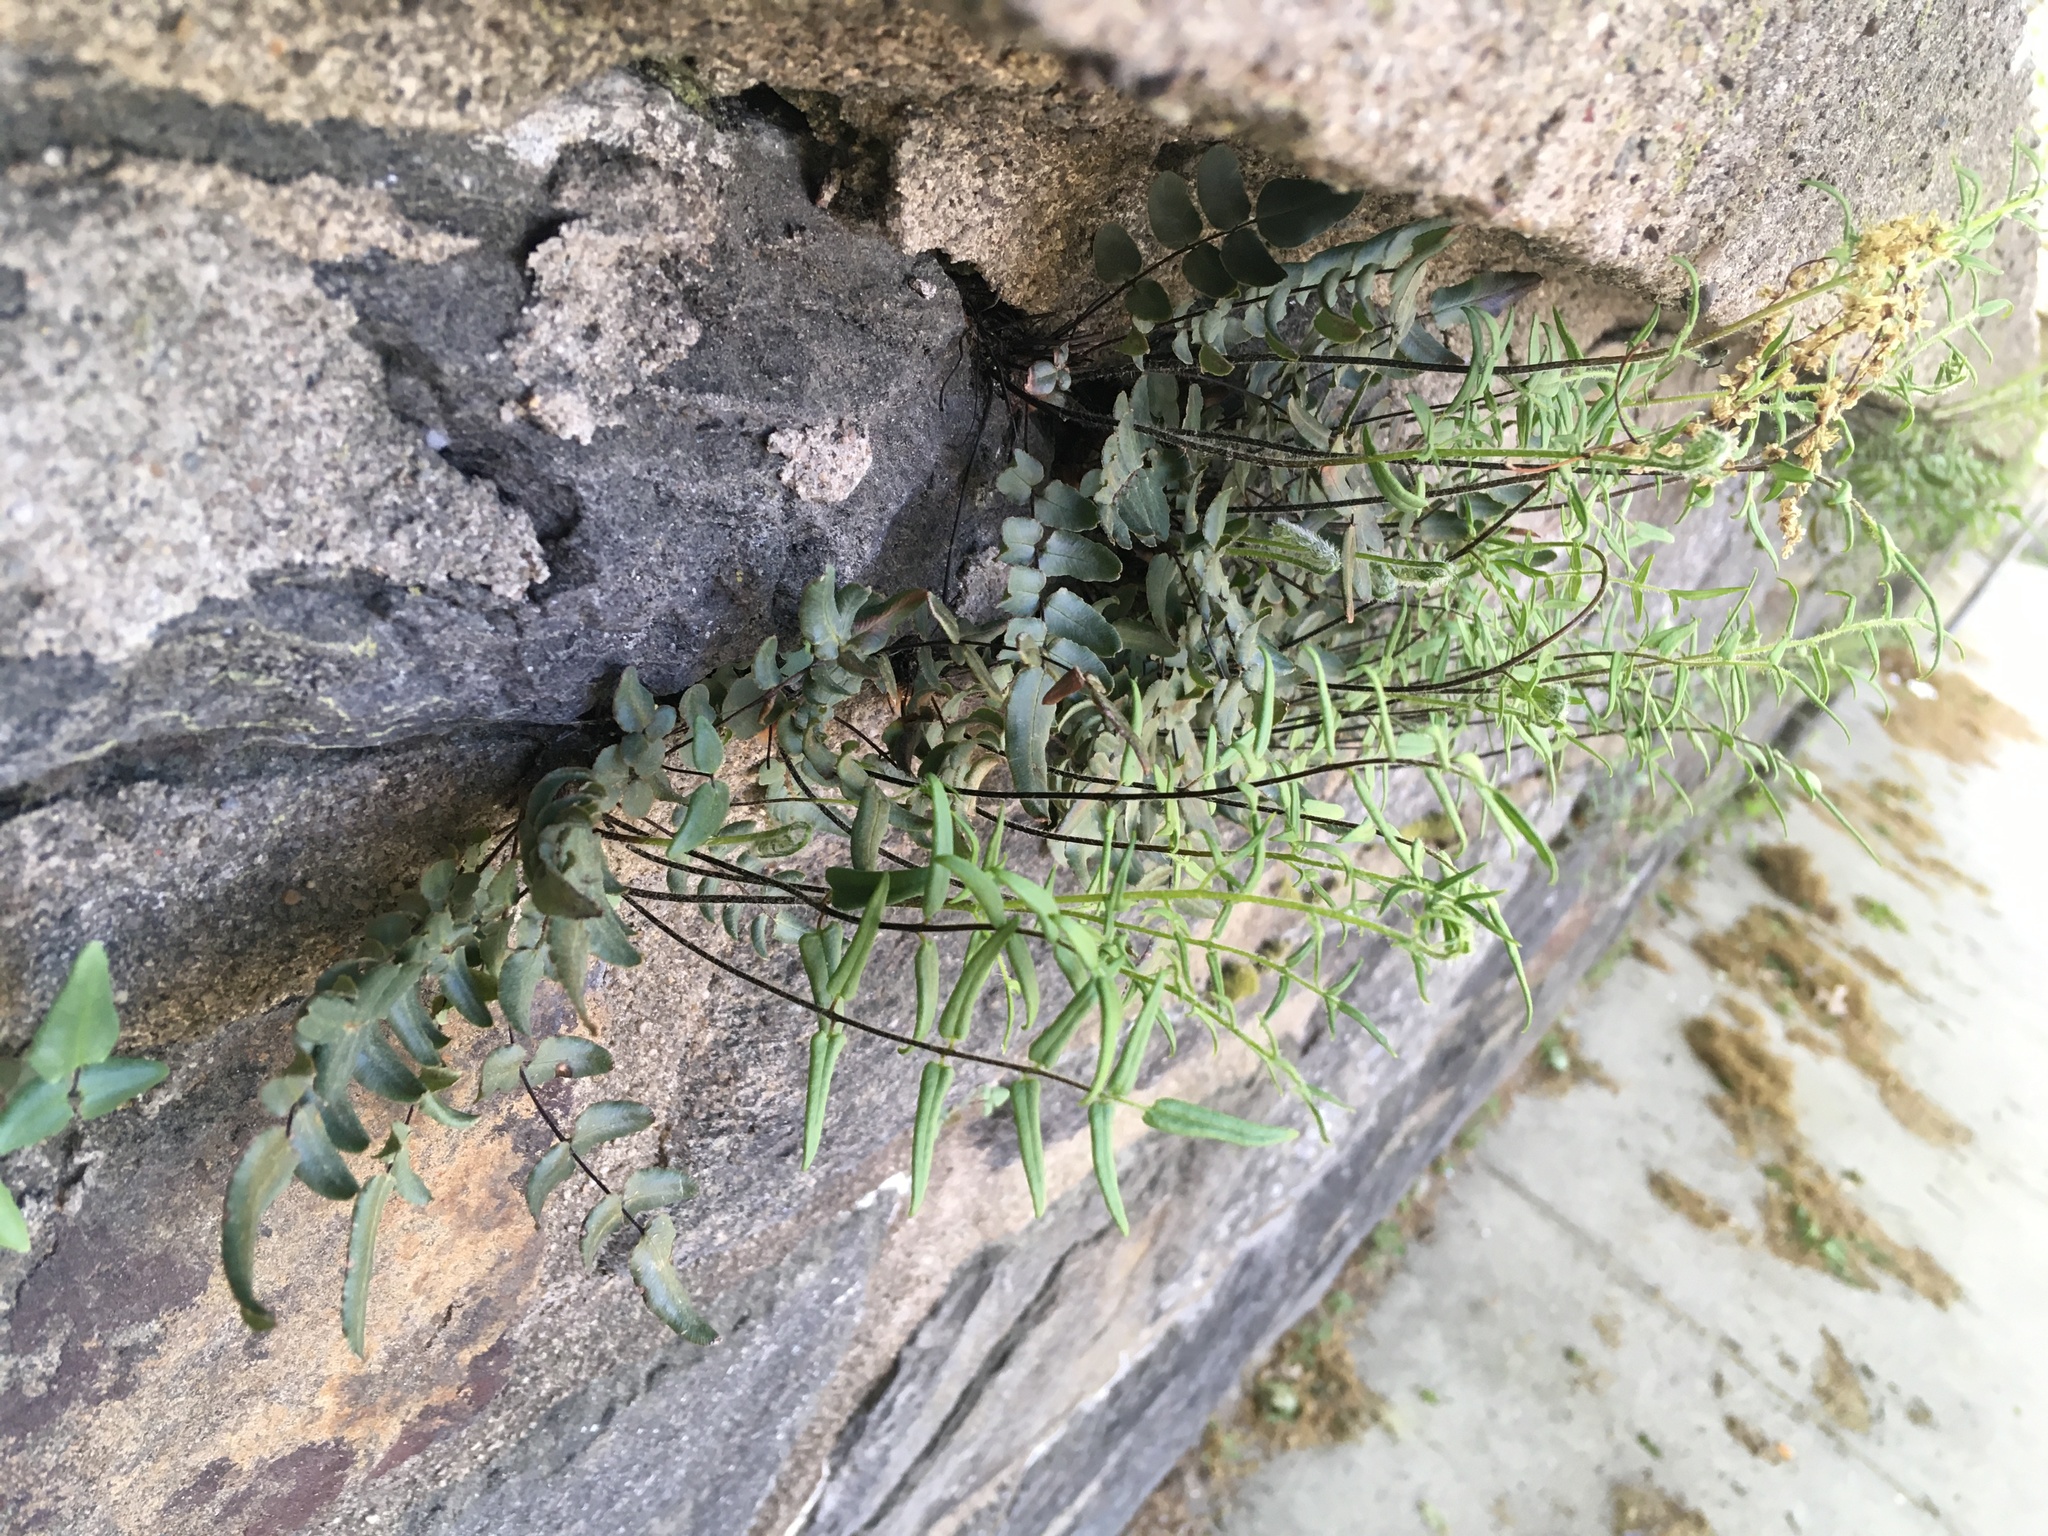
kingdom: Plantae
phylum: Tracheophyta
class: Polypodiopsida
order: Polypodiales
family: Pteridaceae
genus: Pellaea
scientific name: Pellaea atropurpurea
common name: Hairy cliffbrake
